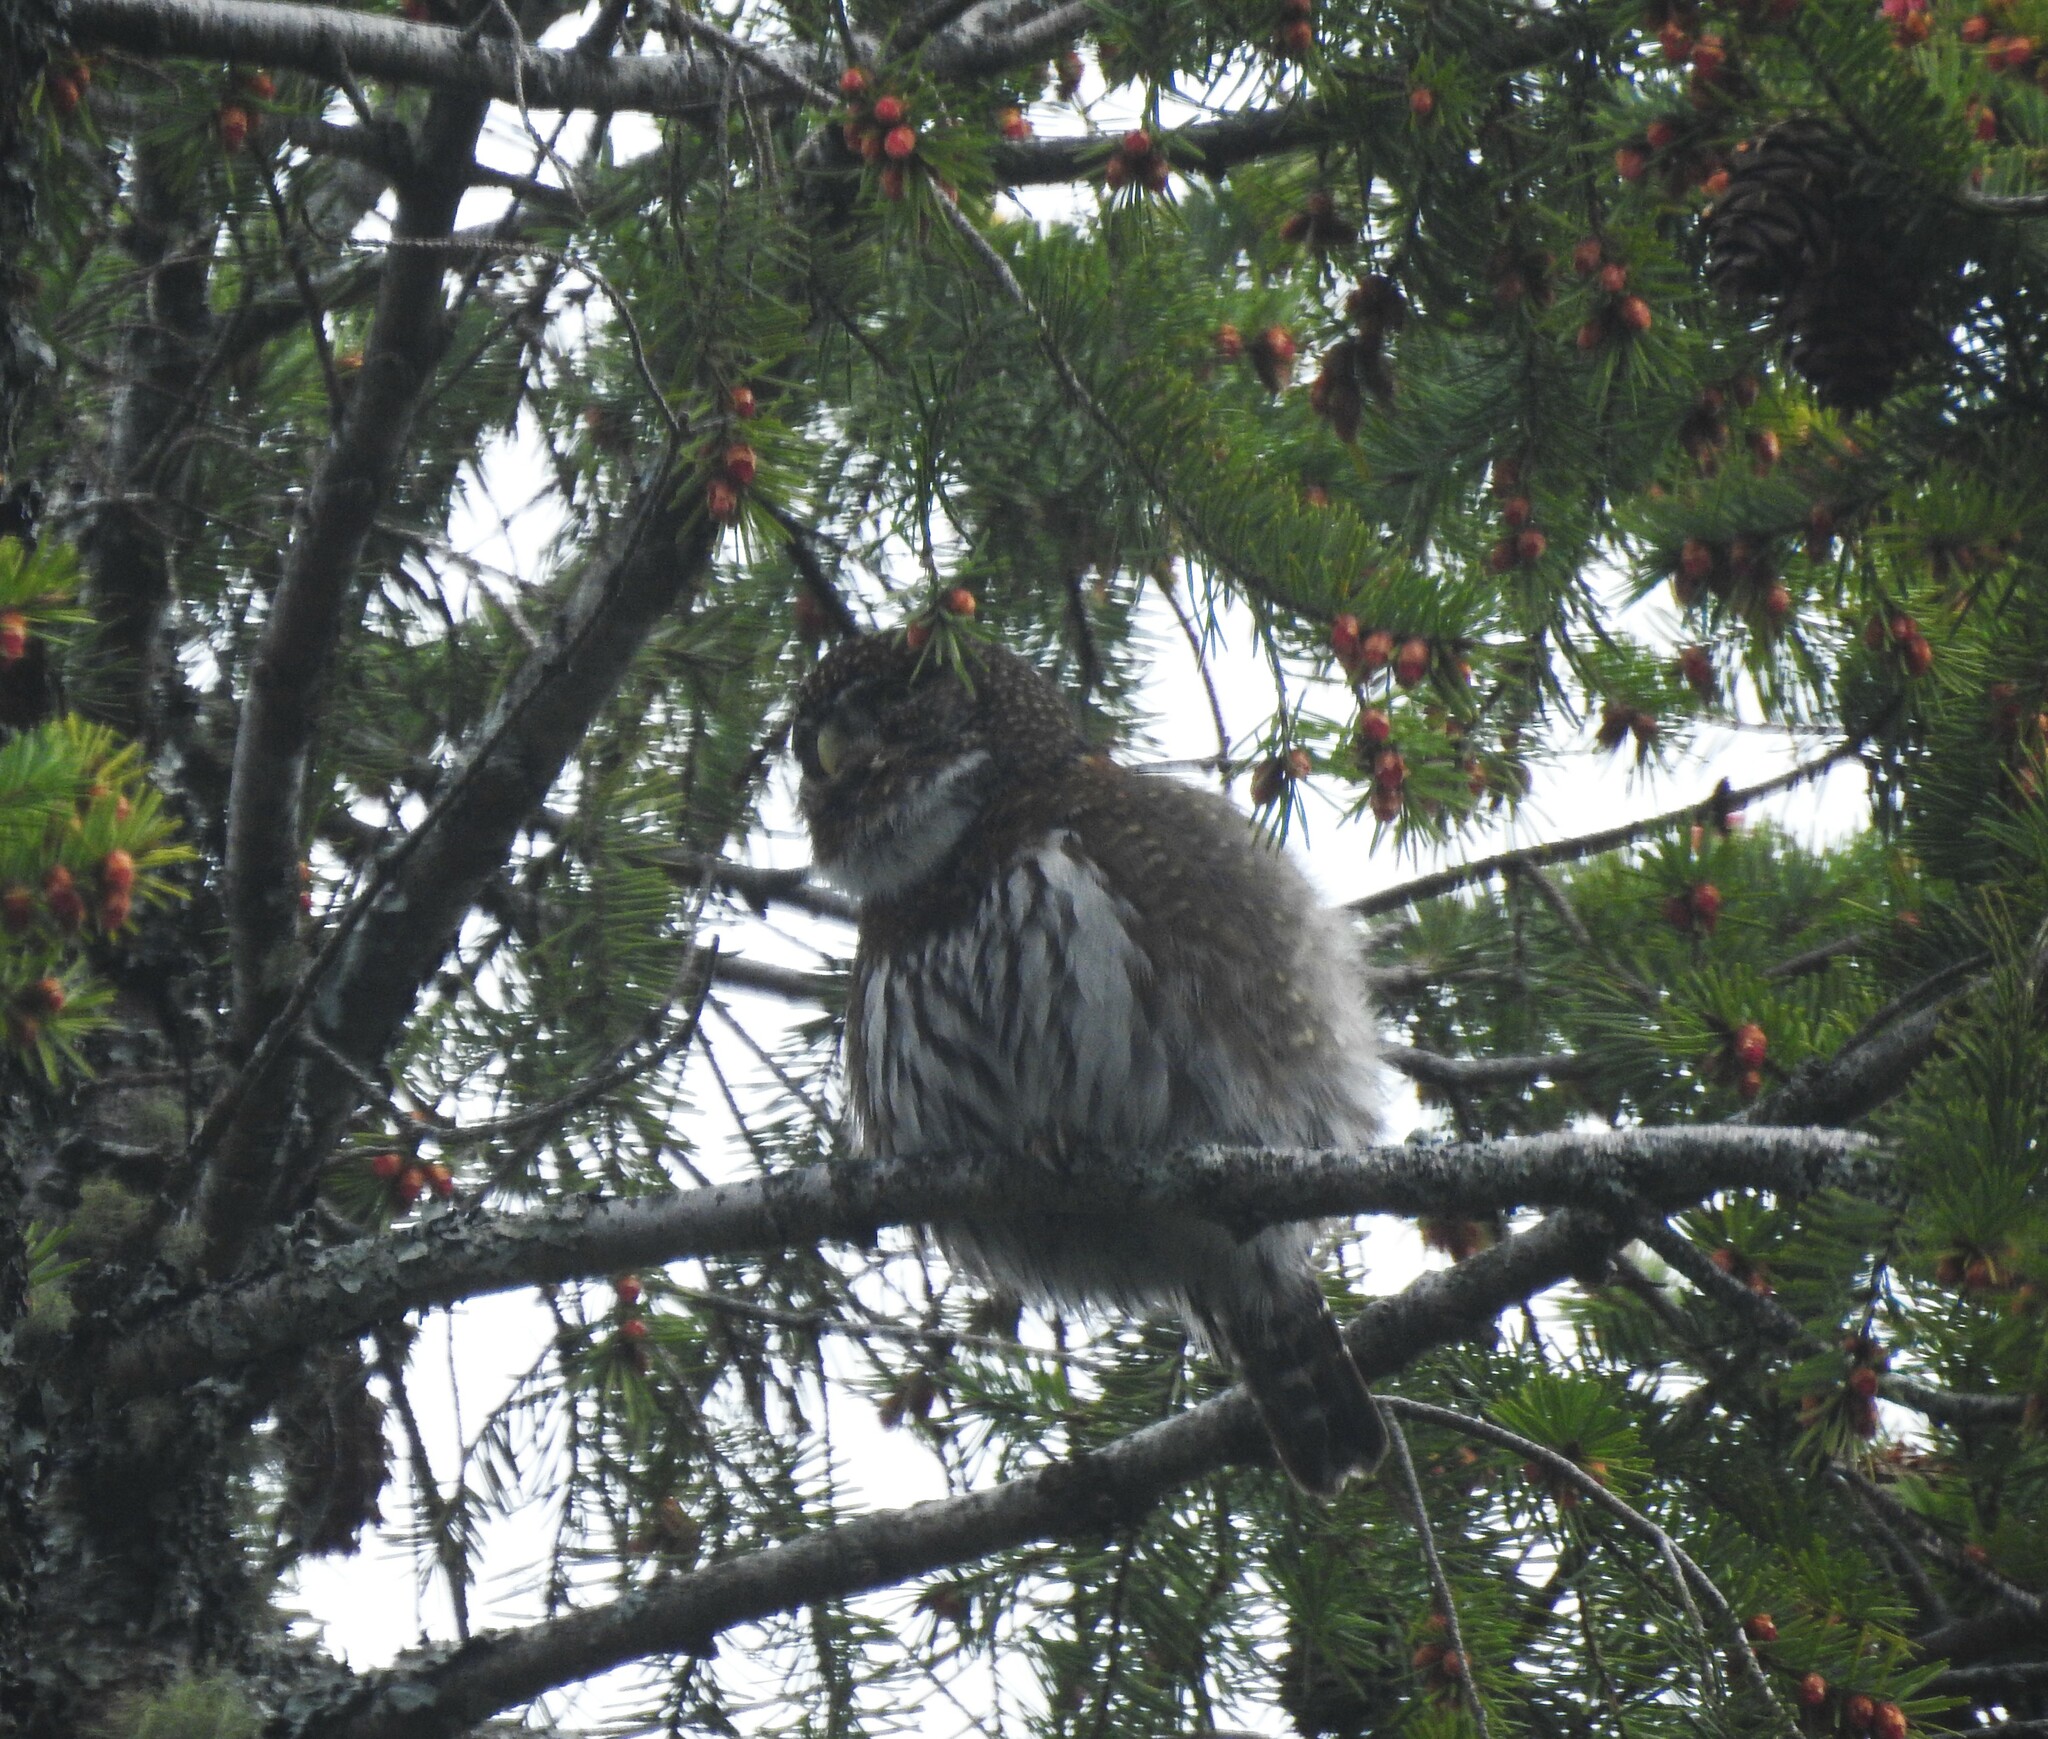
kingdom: Animalia
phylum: Chordata
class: Aves
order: Strigiformes
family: Strigidae
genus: Glaucidium
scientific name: Glaucidium gnoma
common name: Northern pygmy-owl
